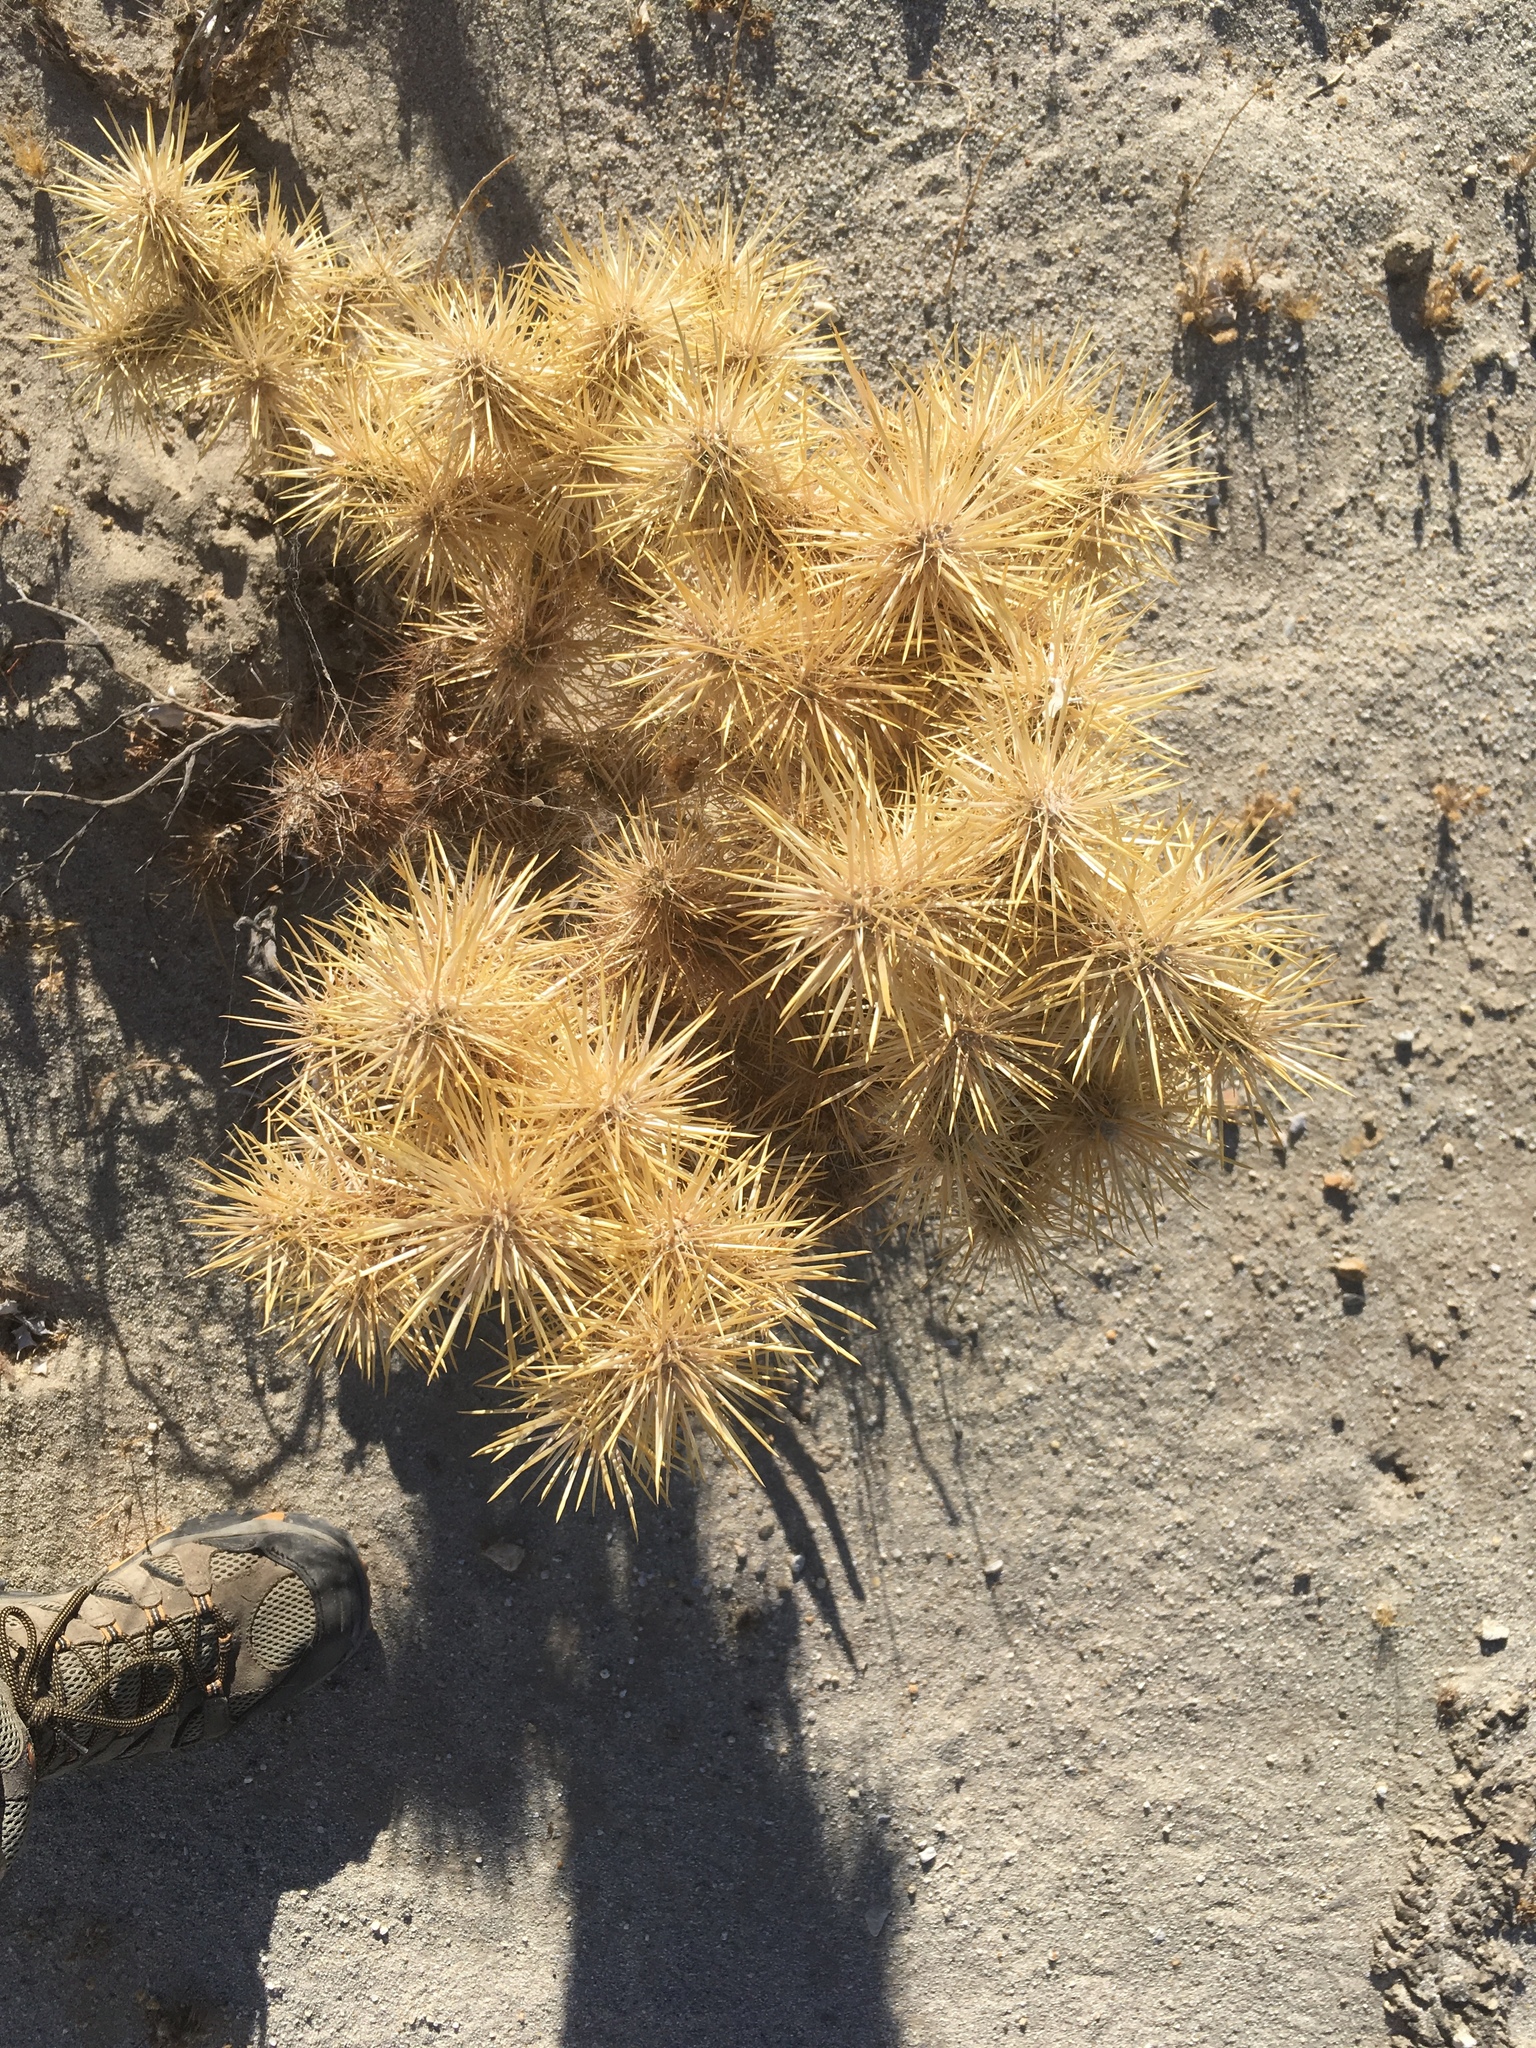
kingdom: Plantae
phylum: Tracheophyta
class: Magnoliopsida
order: Caryophyllales
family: Cactaceae
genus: Cylindropuntia
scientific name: Cylindropuntia echinocarpa
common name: Ground cholla
